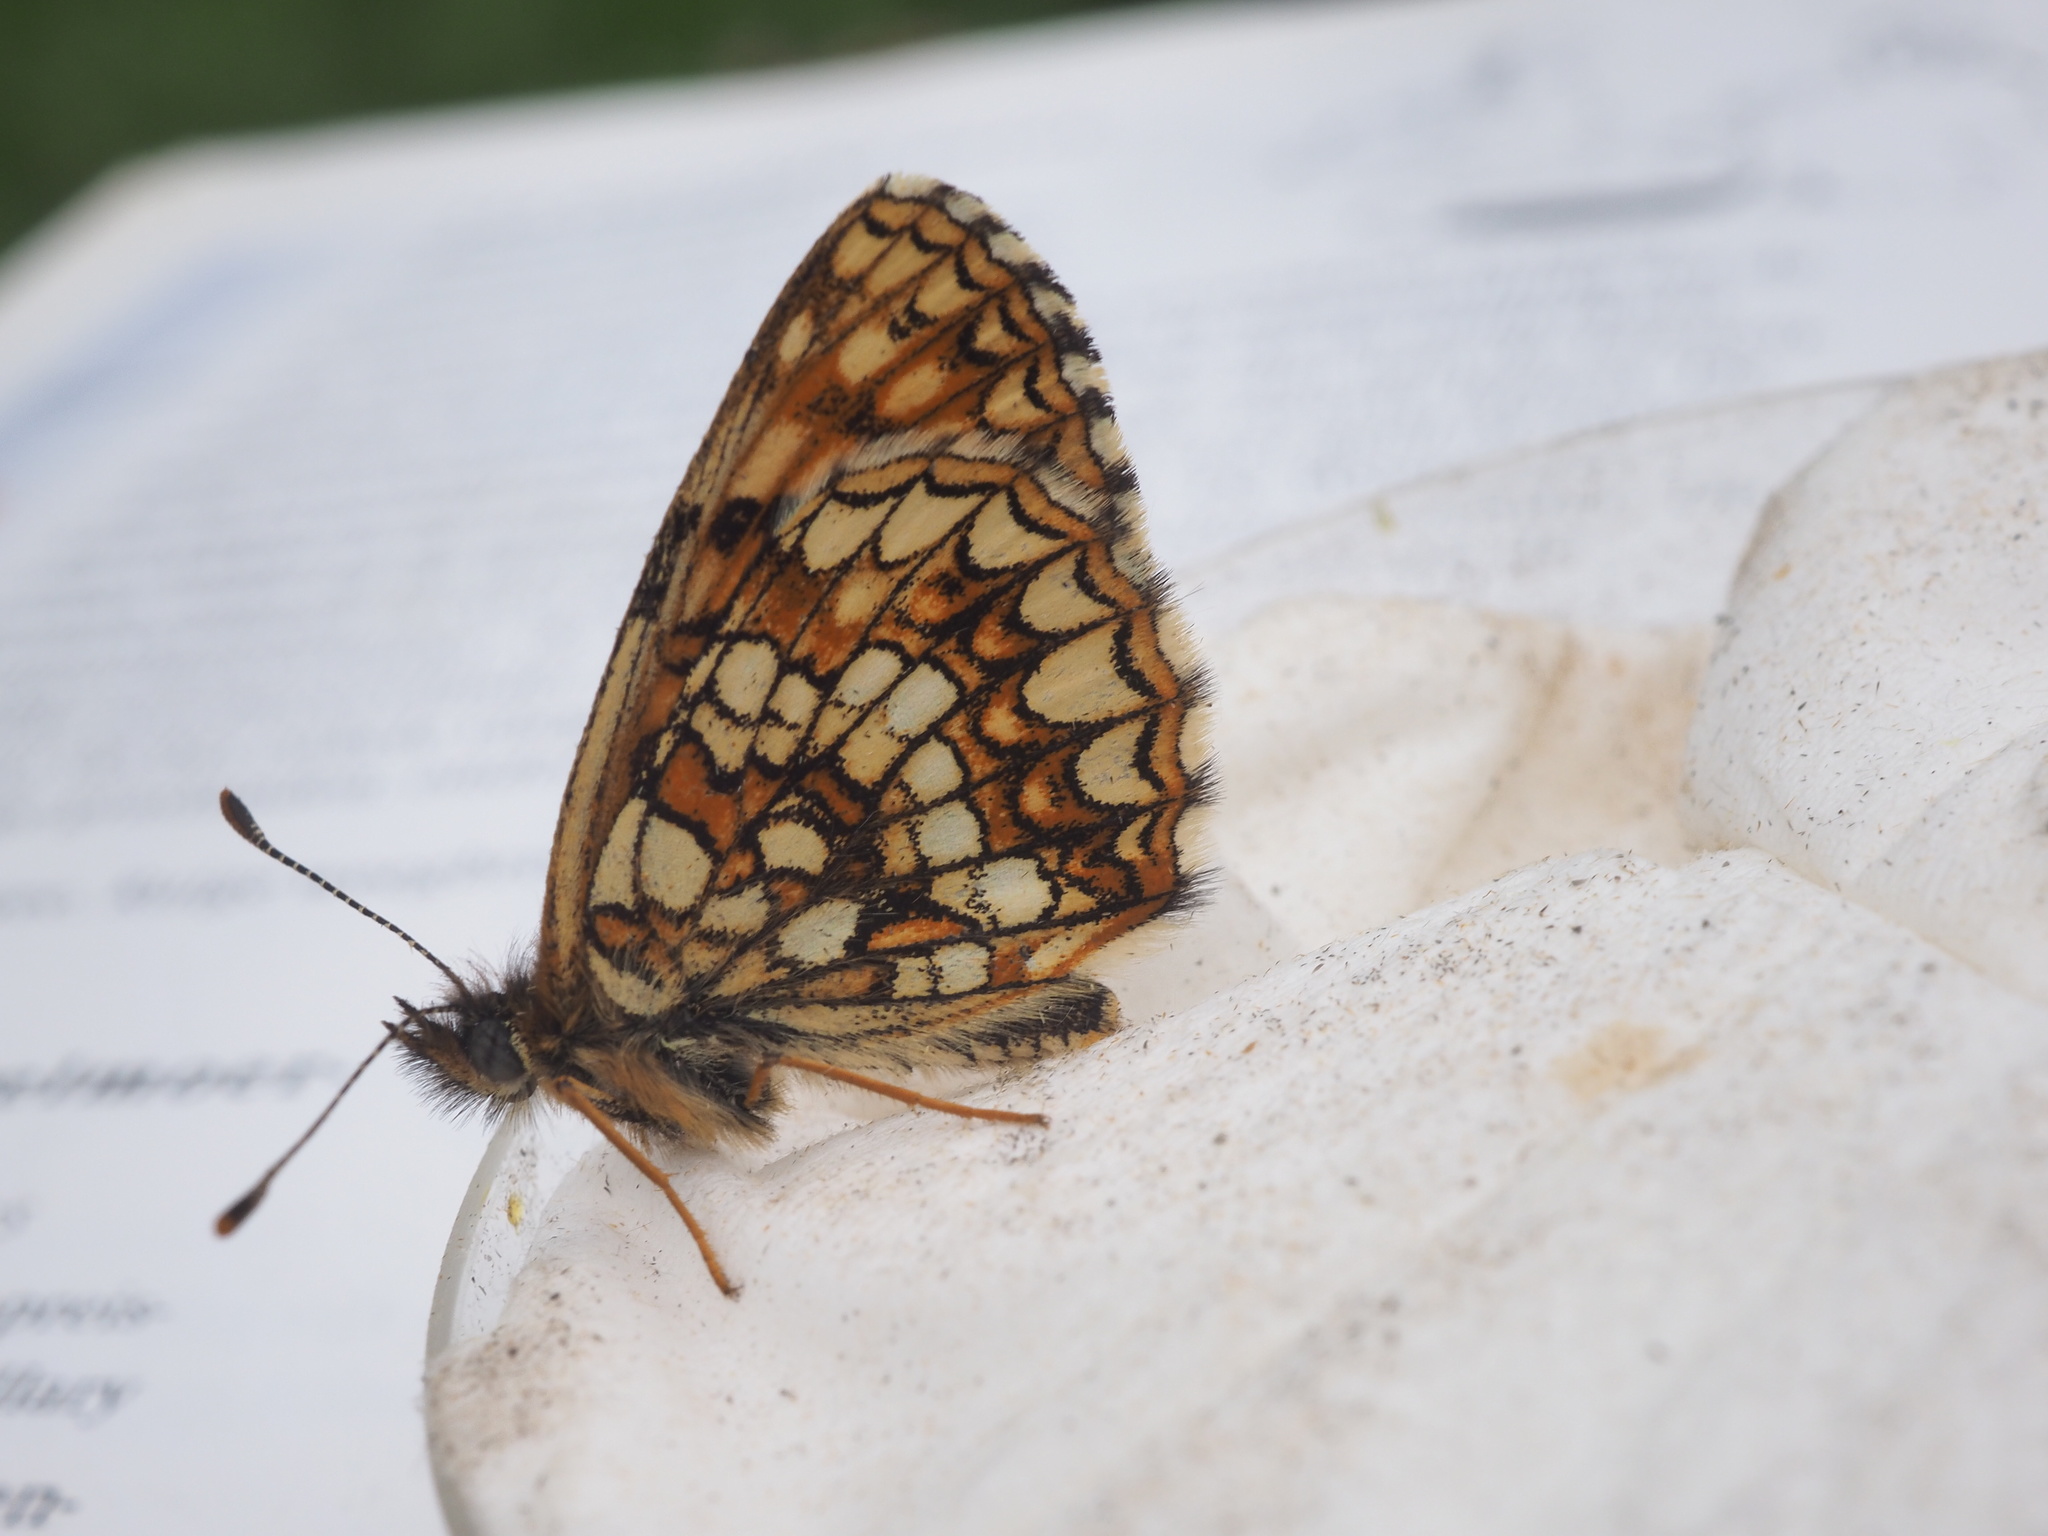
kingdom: Animalia
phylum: Arthropoda
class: Insecta
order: Lepidoptera
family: Nymphalidae
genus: Melitaea
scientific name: Melitaea diamina
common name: False heath fritillary
